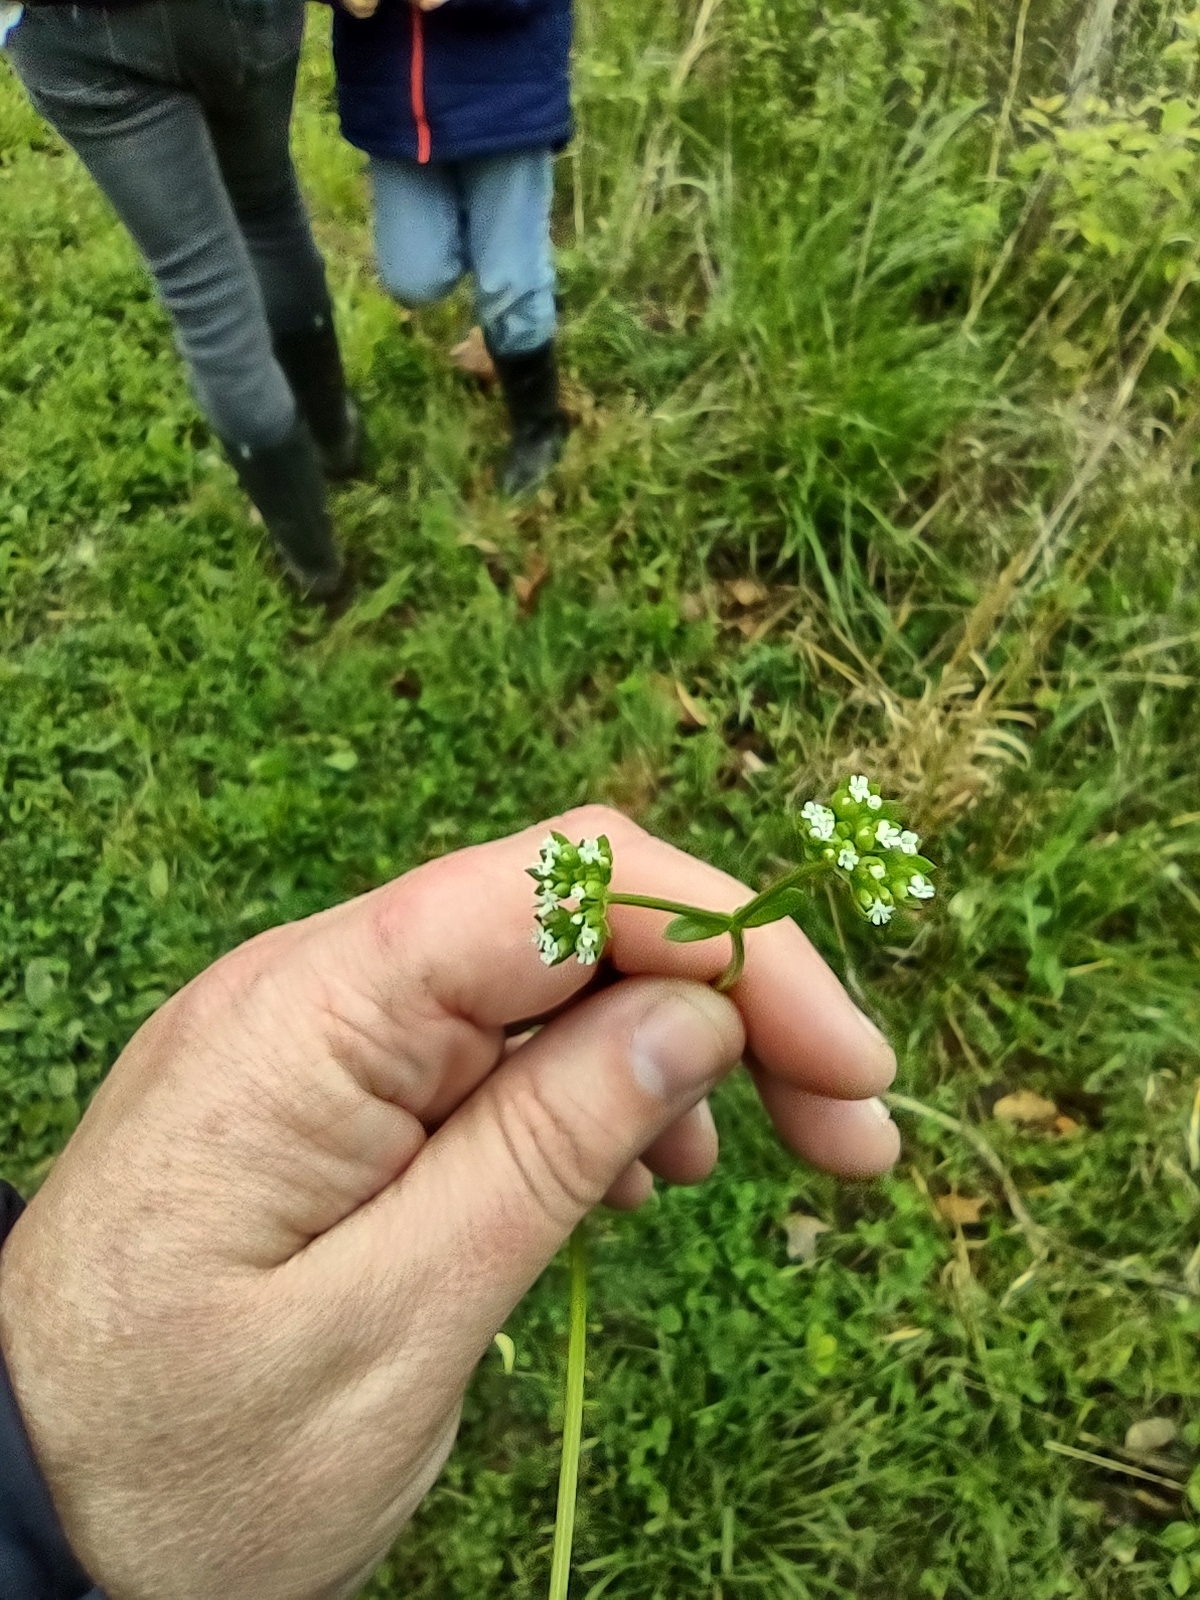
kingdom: Plantae
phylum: Tracheophyta
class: Magnoliopsida
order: Dipsacales
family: Caprifoliaceae
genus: Valerianella
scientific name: Valerianella radiata
